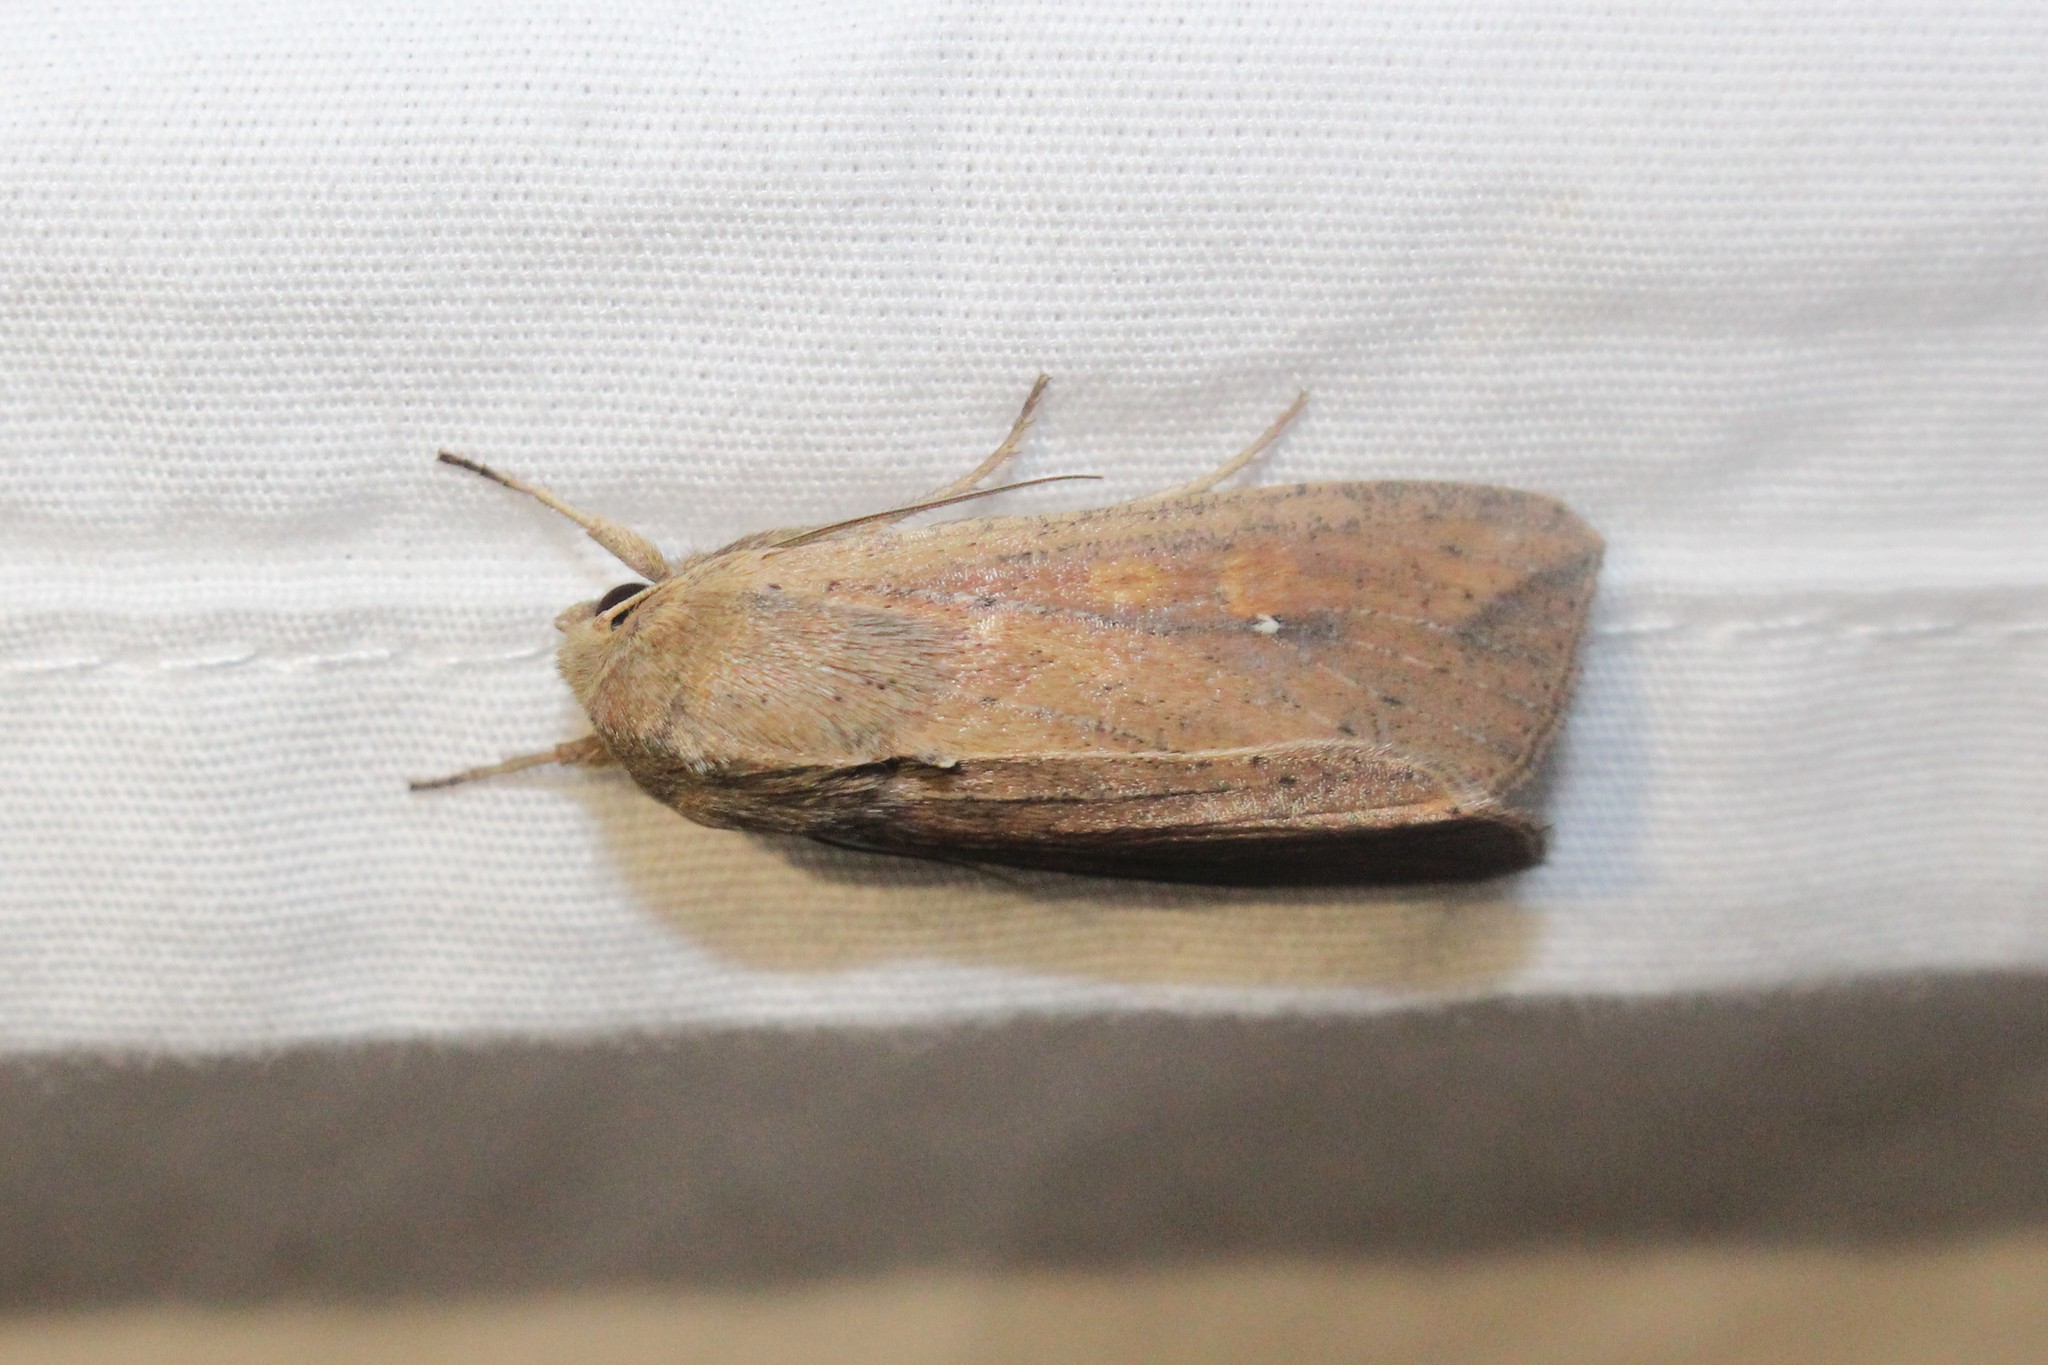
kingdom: Animalia
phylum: Arthropoda
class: Insecta
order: Lepidoptera
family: Noctuidae
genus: Mythimna
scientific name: Mythimna unipuncta
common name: White-speck
